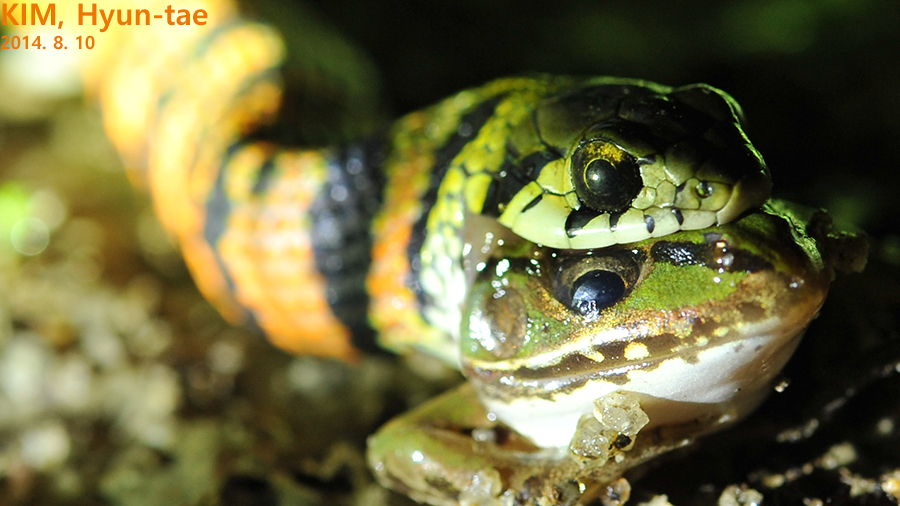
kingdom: Animalia
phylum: Chordata
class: Squamata
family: Colubridae
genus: Rhabdophis
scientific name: Rhabdophis tigrinus
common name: Tiger keelback
